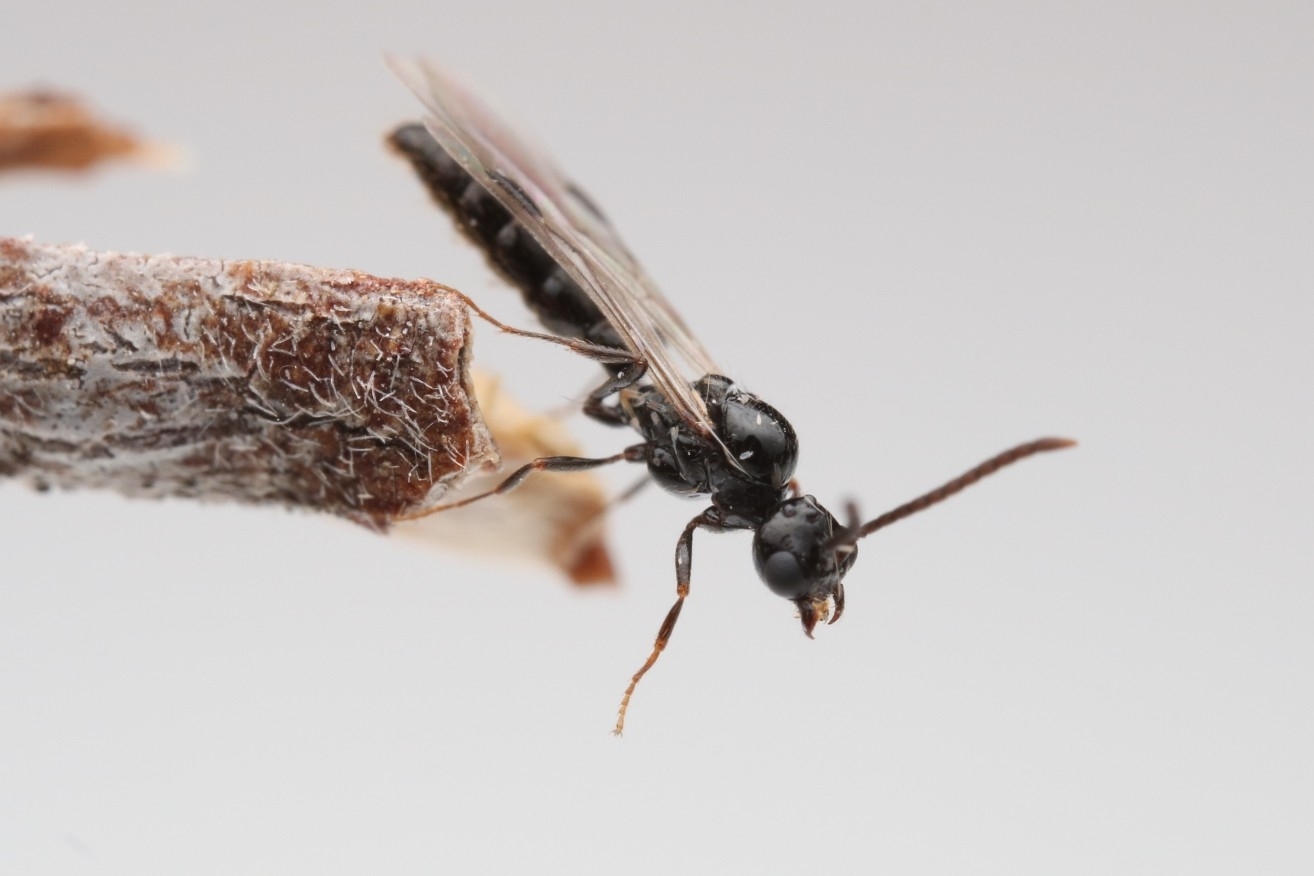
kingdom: Animalia
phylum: Arthropoda
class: Insecta
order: Hymenoptera
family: Formicidae
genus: Acanthostichus
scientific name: Acanthostichus
